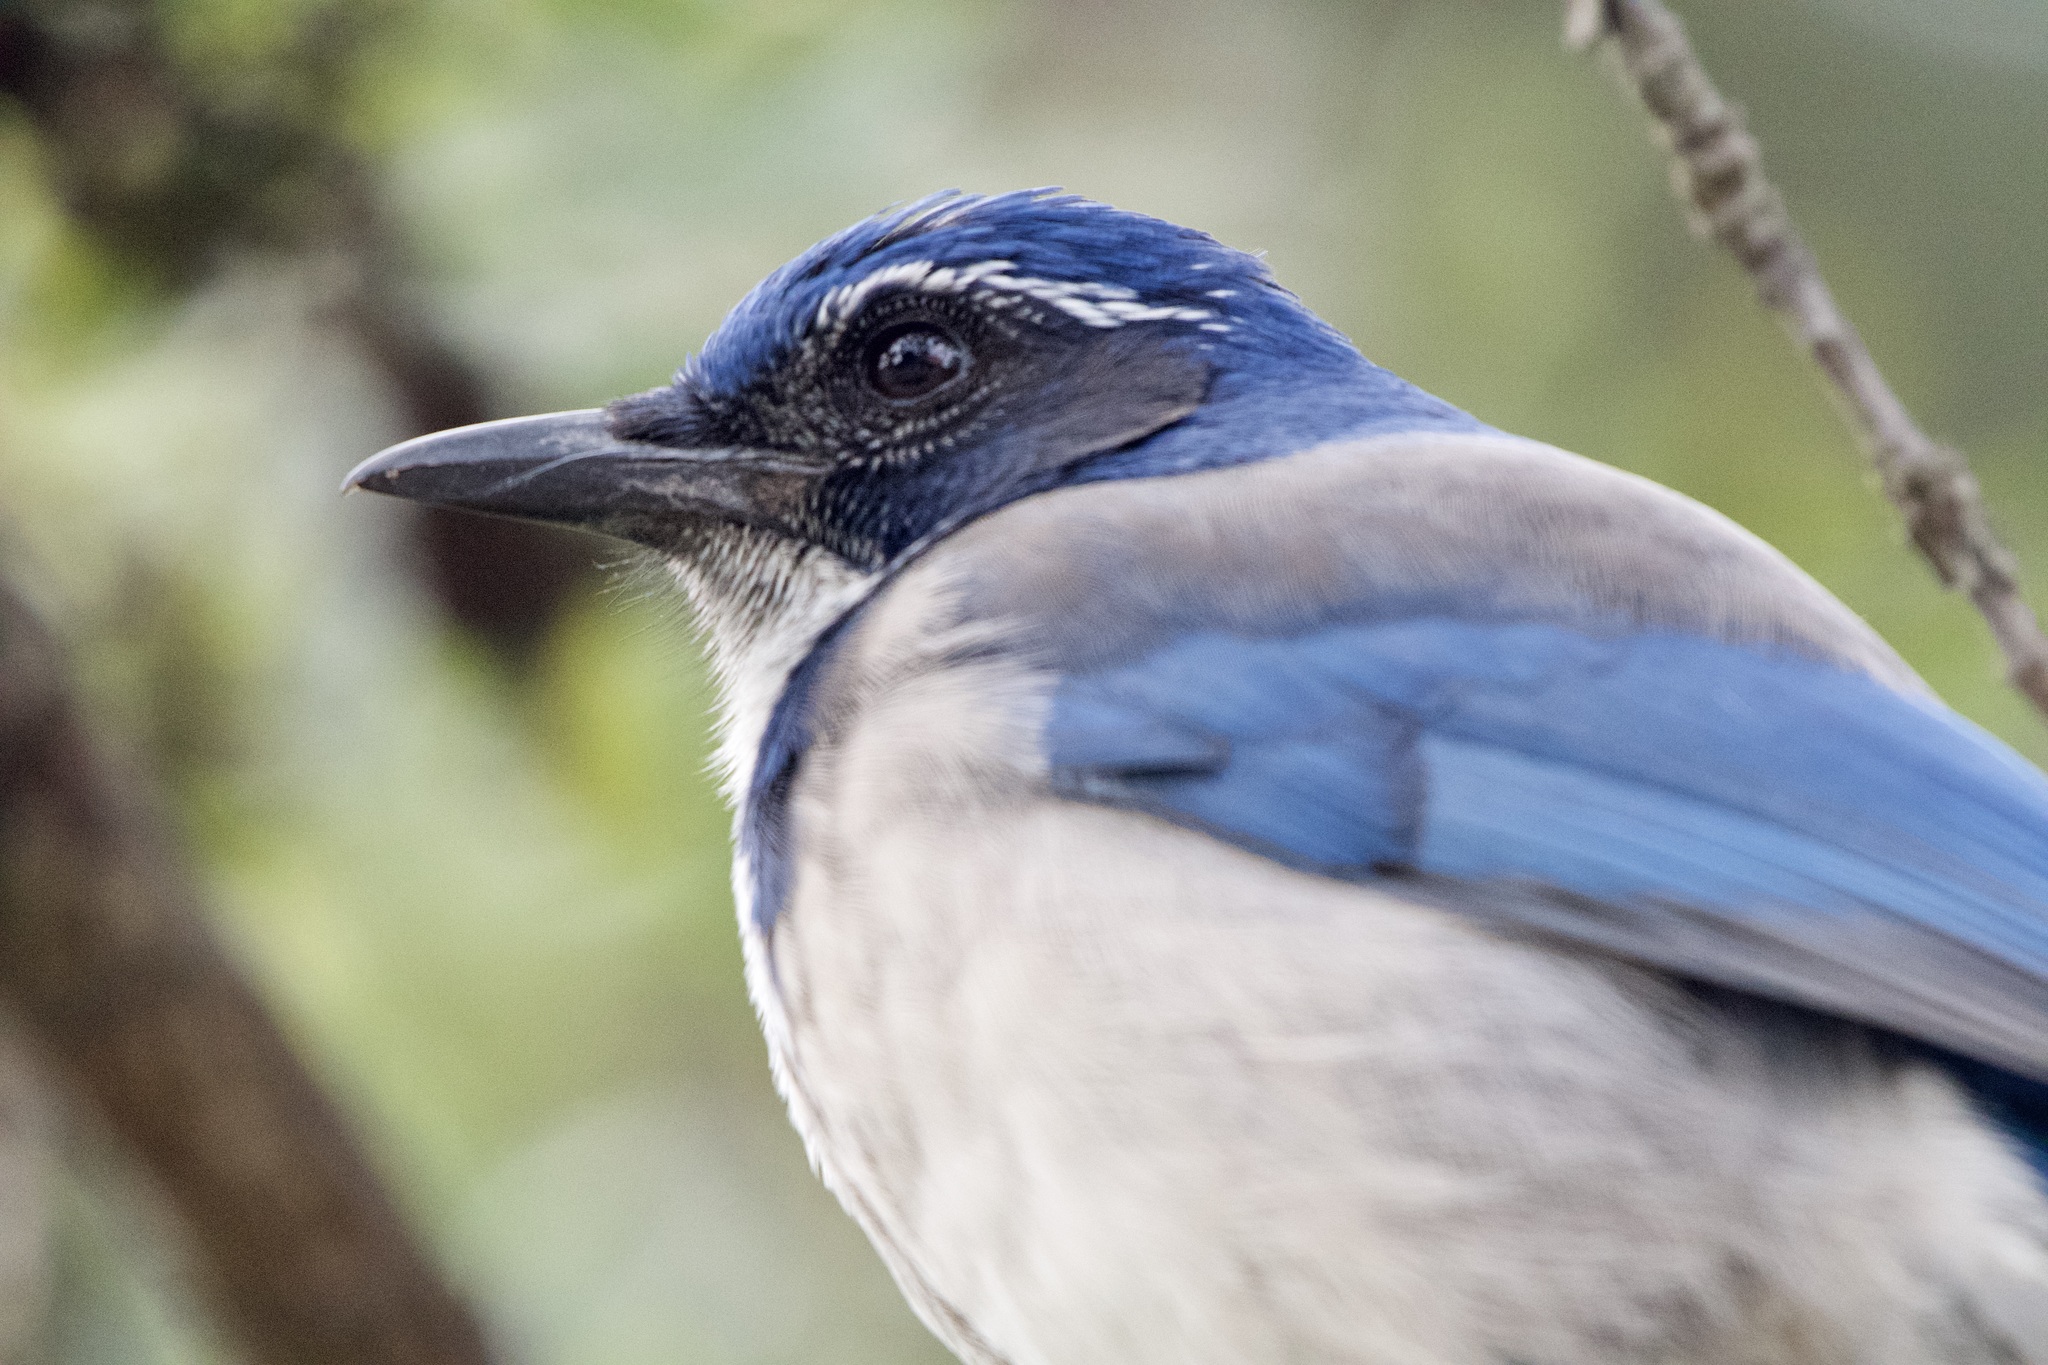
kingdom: Animalia
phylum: Chordata
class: Aves
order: Passeriformes
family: Corvidae
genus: Aphelocoma
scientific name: Aphelocoma californica
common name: California scrub-jay
